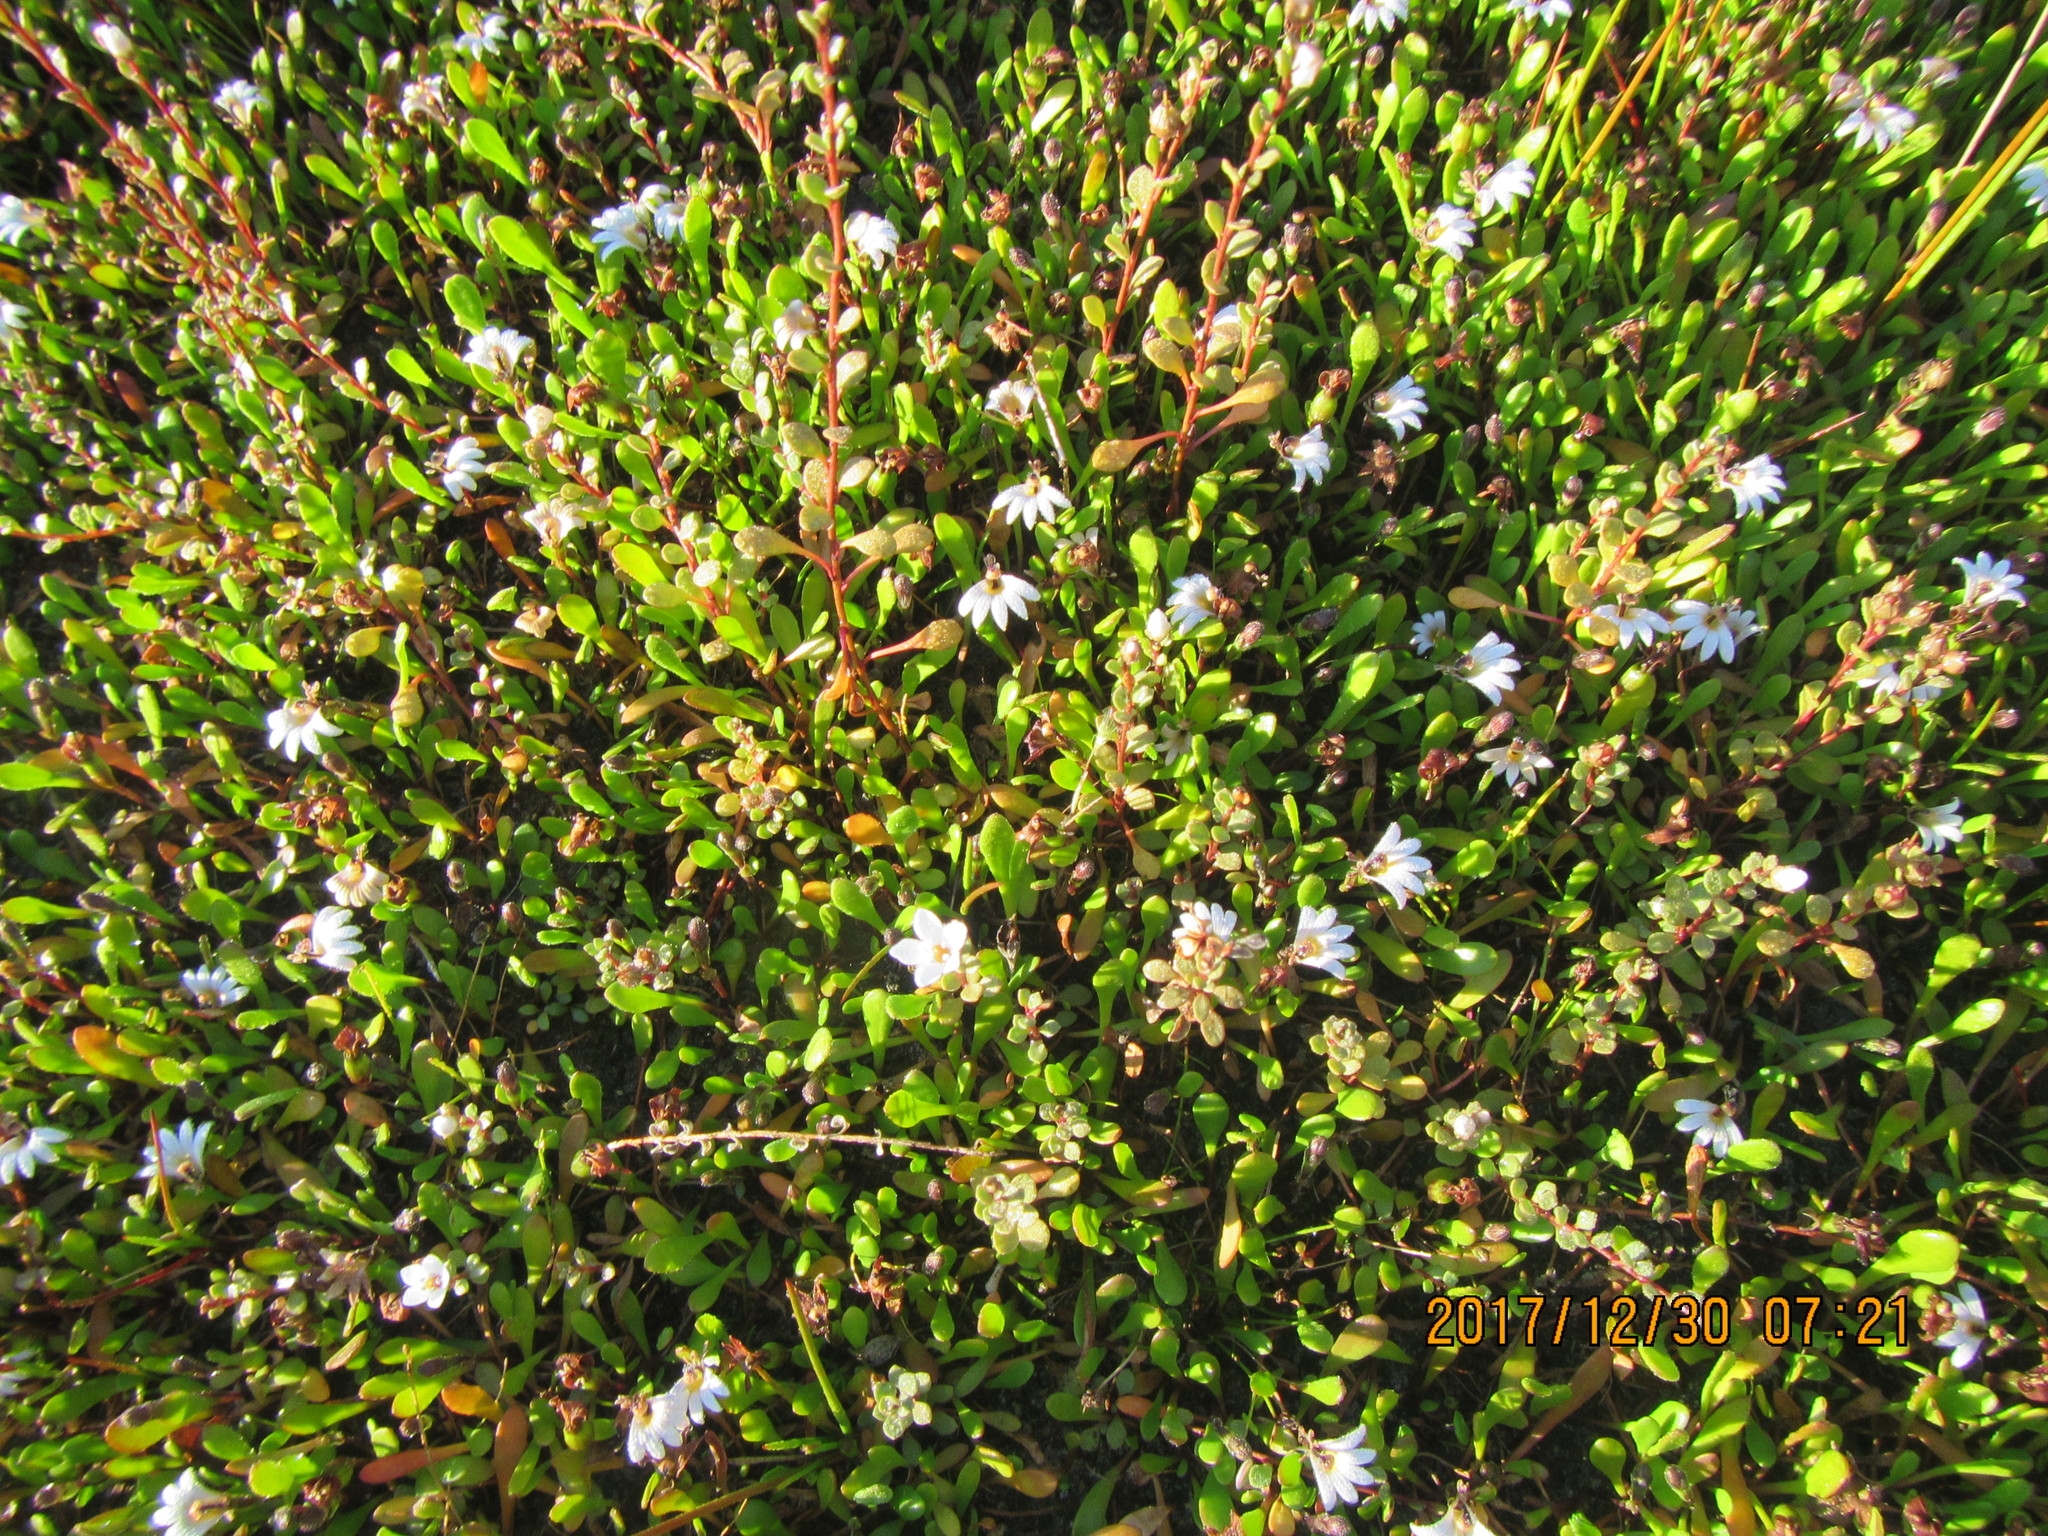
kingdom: Plantae
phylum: Tracheophyta
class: Magnoliopsida
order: Asterales
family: Goodeniaceae
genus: Goodenia
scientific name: Goodenia radicans
